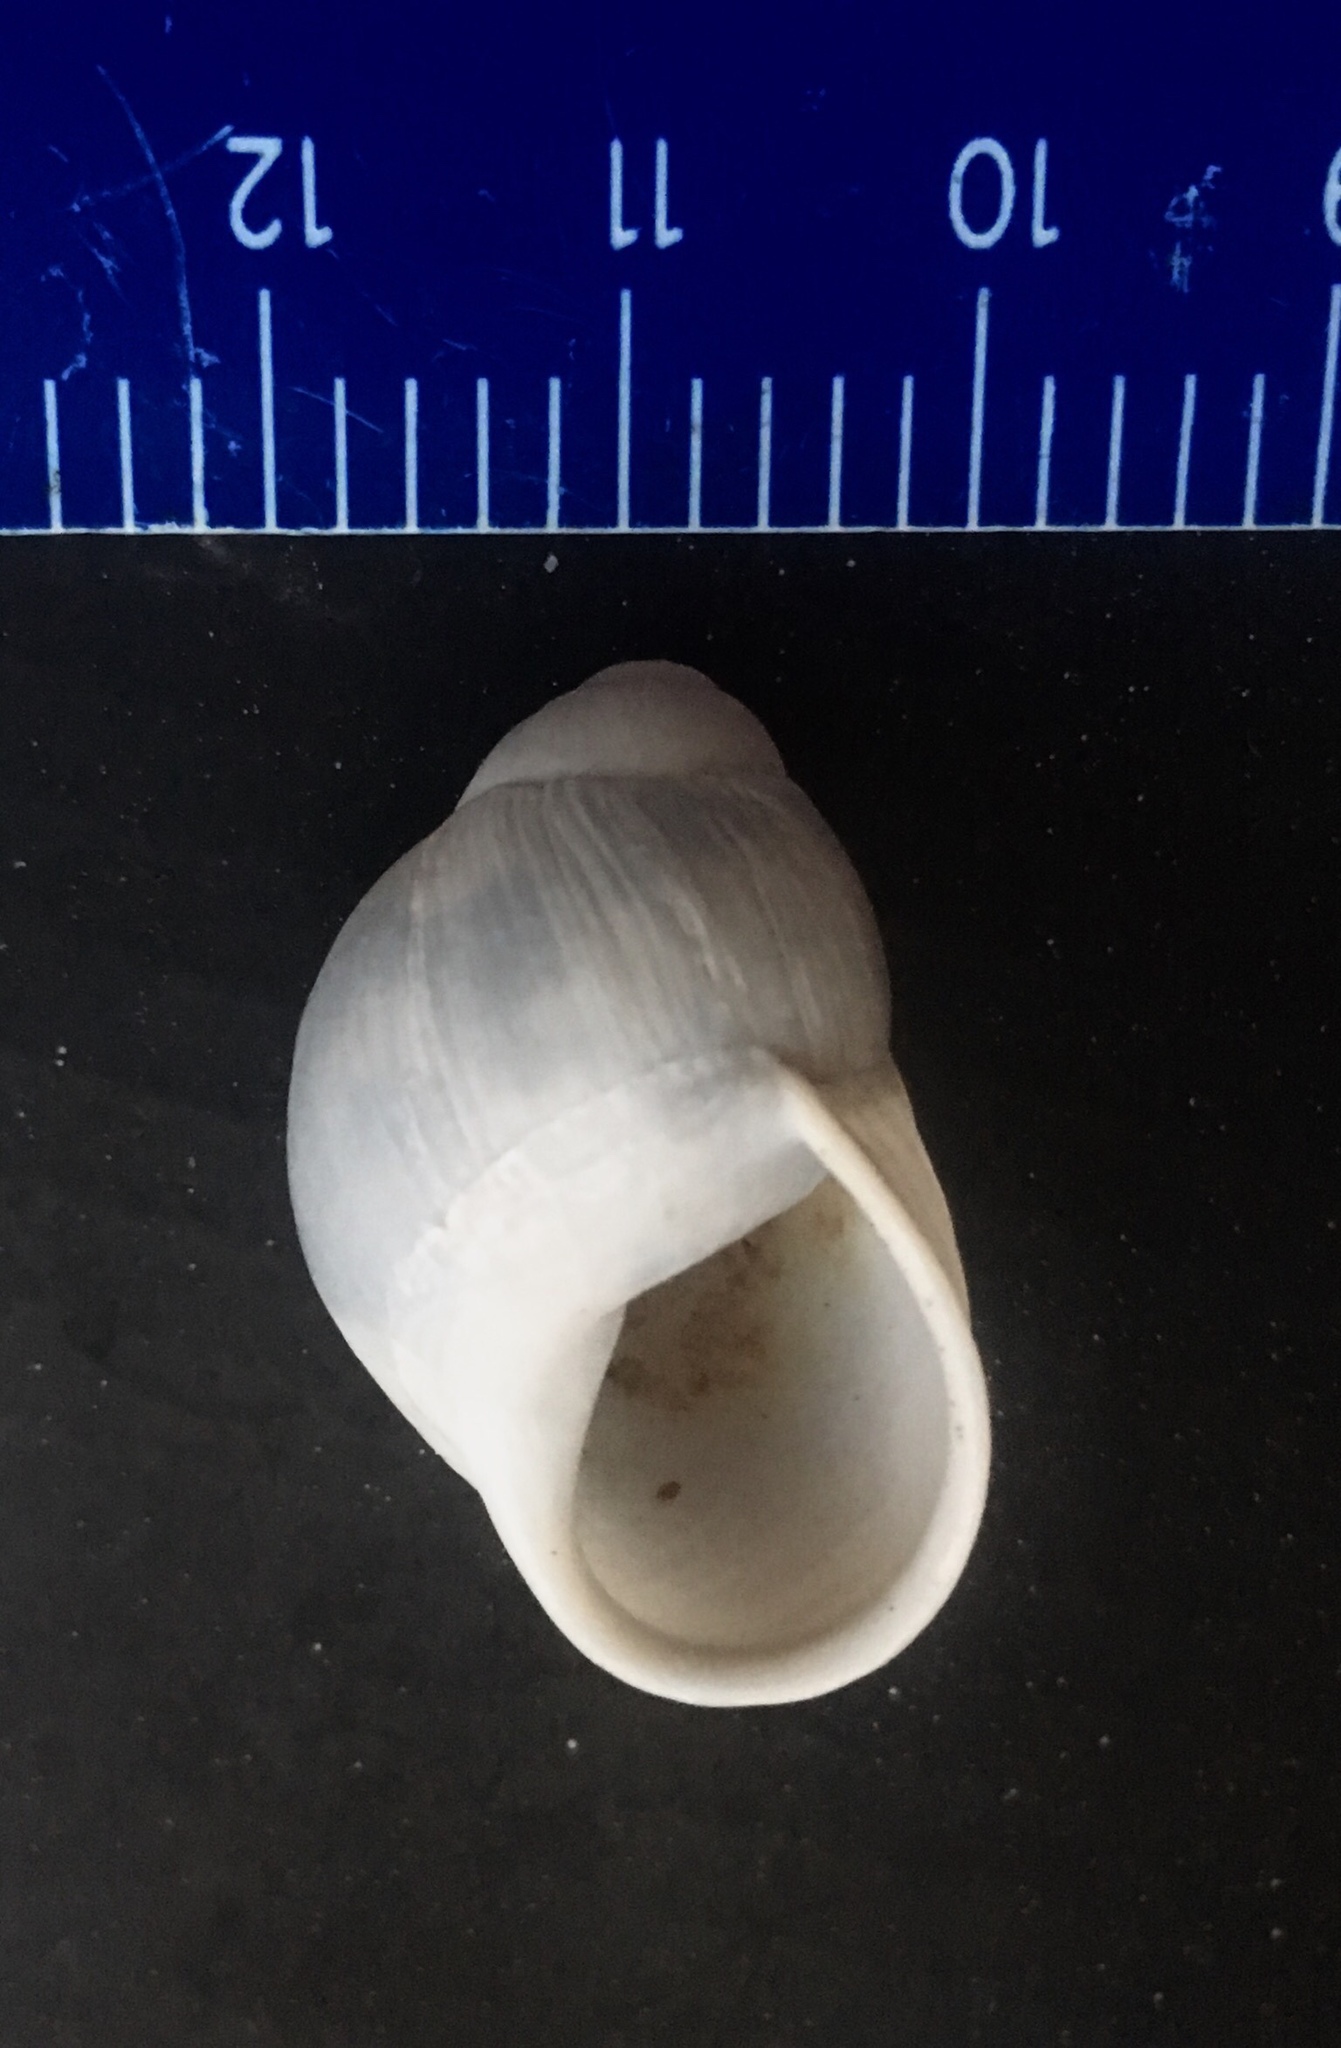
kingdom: Animalia
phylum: Mollusca
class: Gastropoda
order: Stylommatophora
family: Strophocheilidae
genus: Austroborus
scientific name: Austroborus dorbignyi
